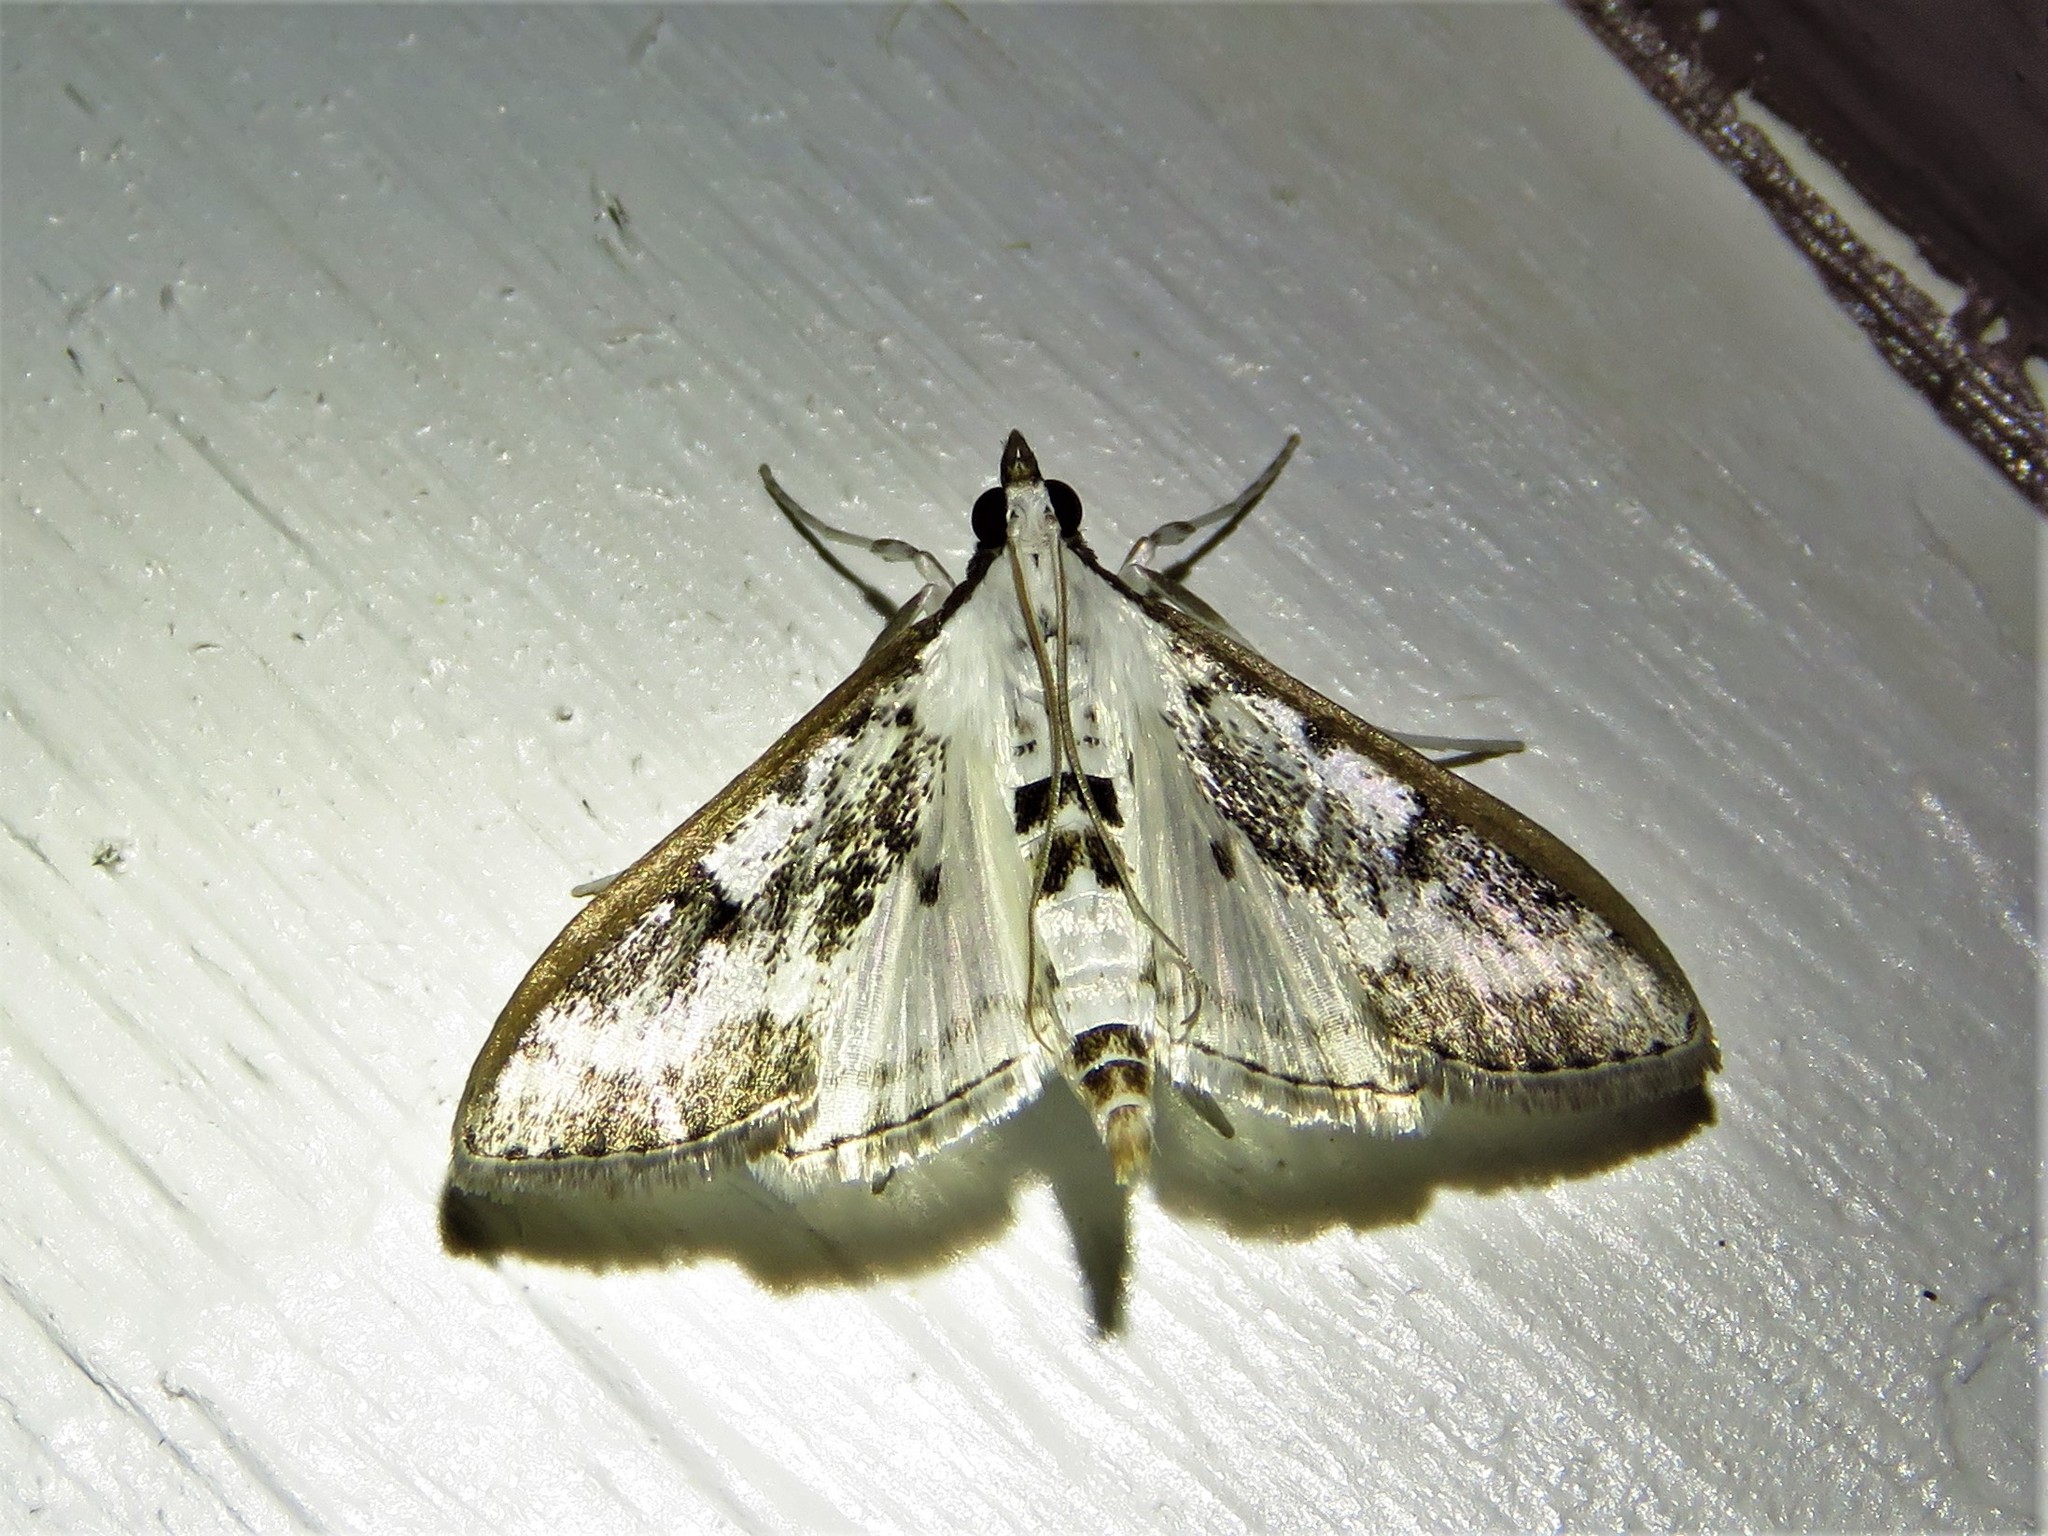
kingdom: Animalia
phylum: Arthropoda
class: Insecta
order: Lepidoptera
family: Crambidae
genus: Palpita
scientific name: Palpita gracilalis
